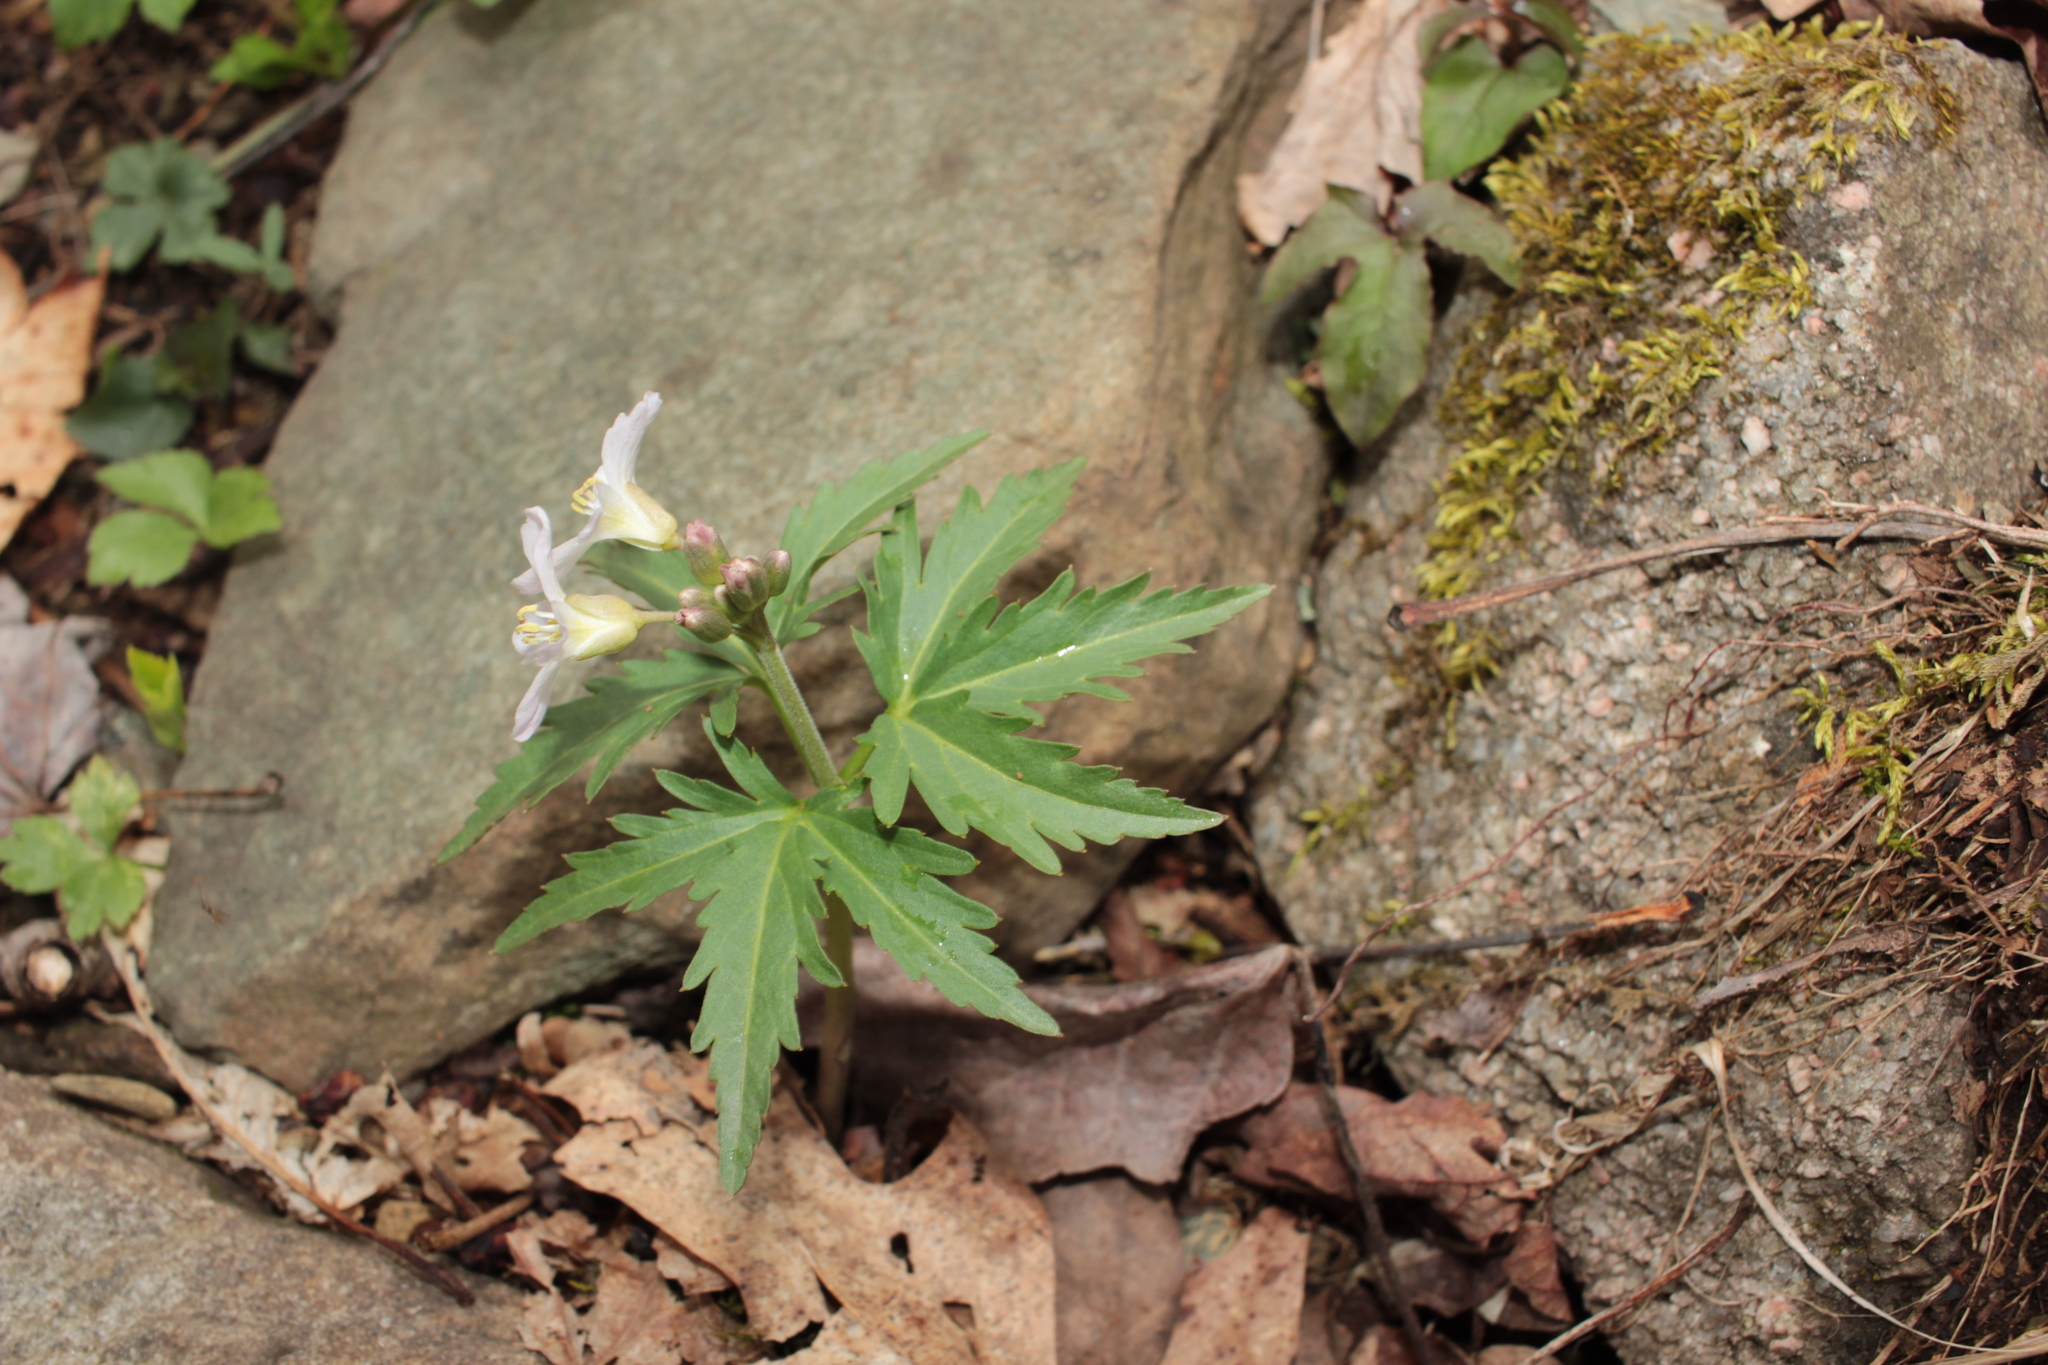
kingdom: Plantae
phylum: Tracheophyta
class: Magnoliopsida
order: Brassicales
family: Brassicaceae
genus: Cardamine
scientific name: Cardamine concatenata
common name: Cut-leaf toothcup
